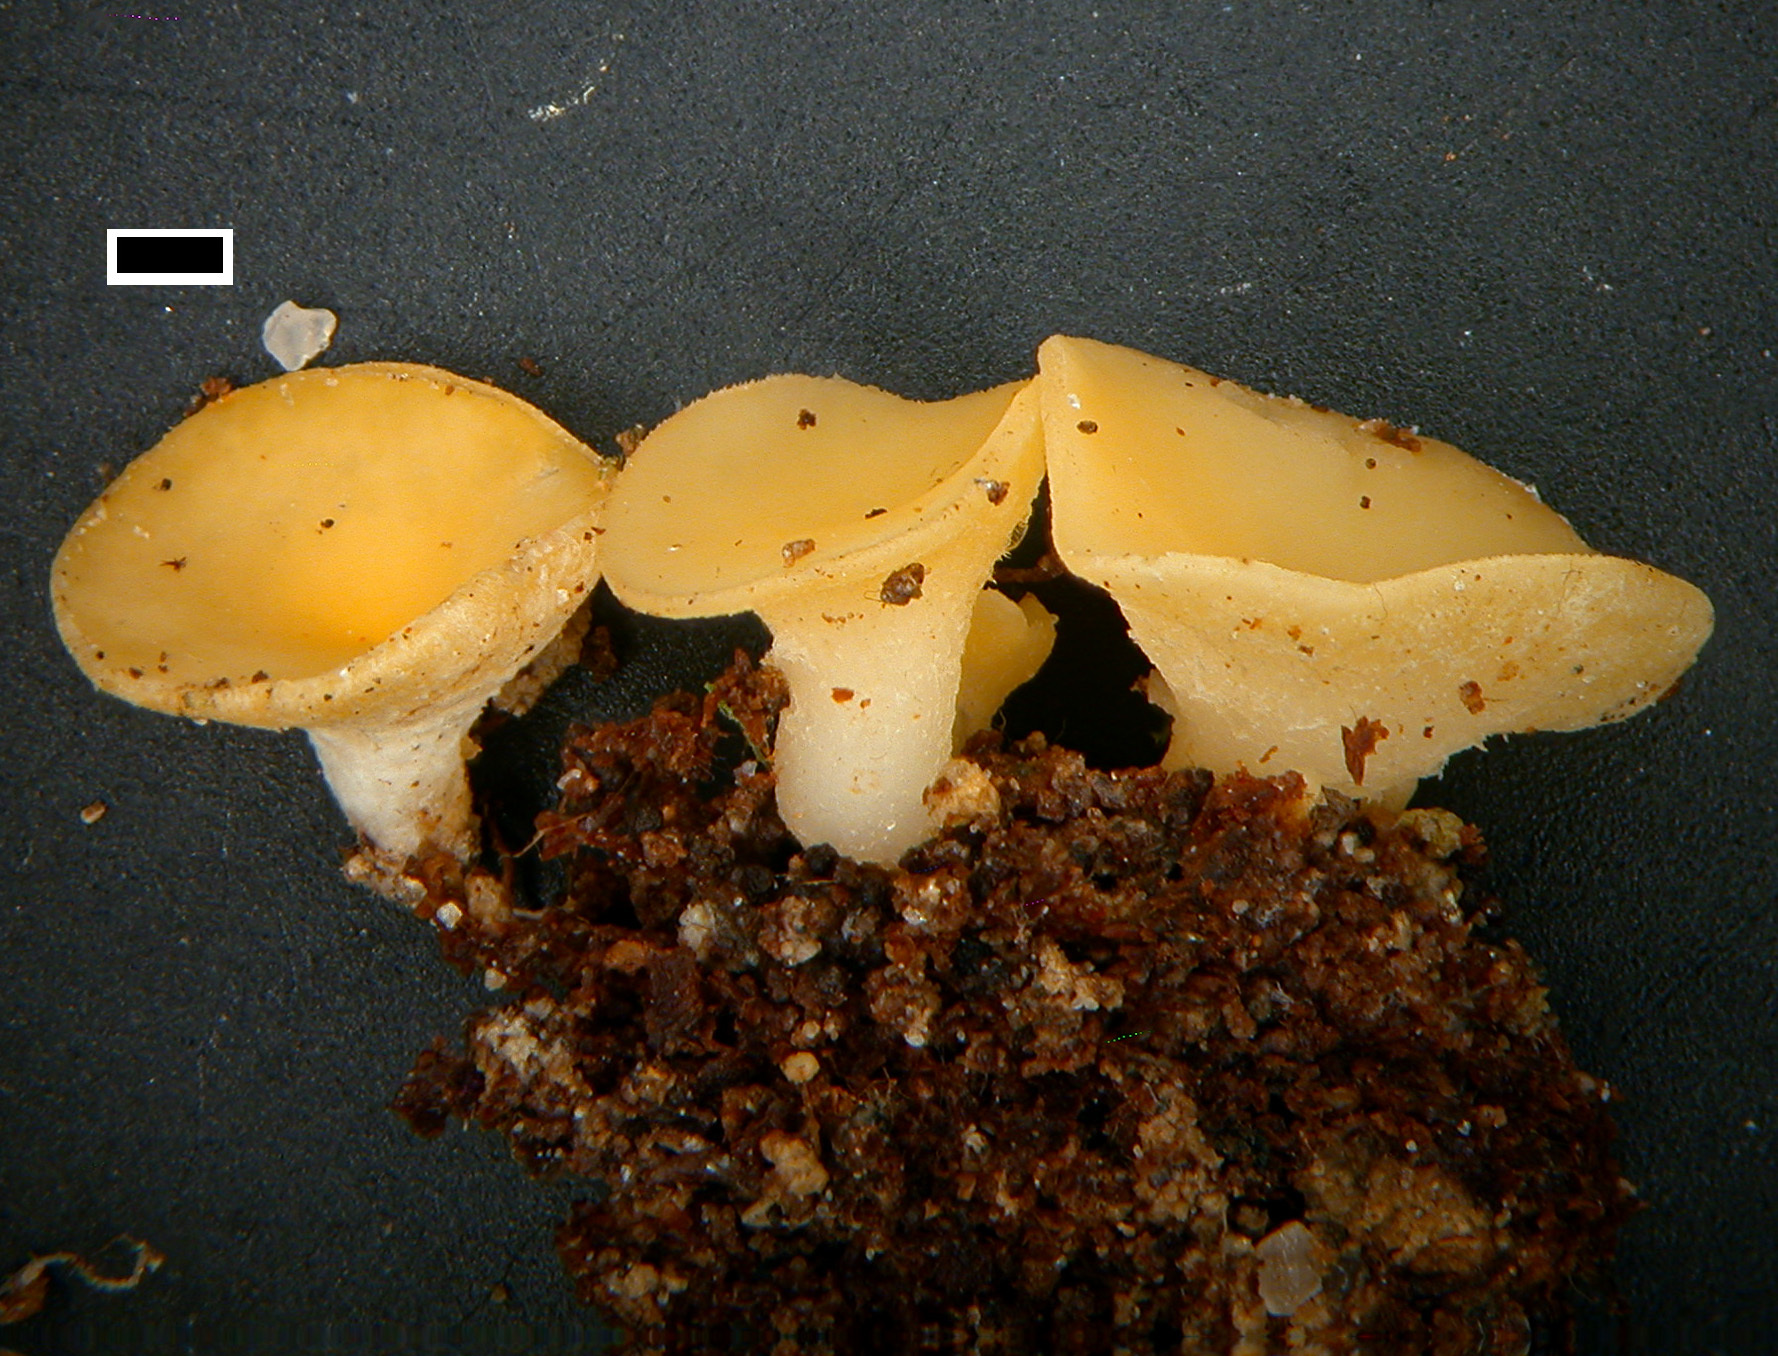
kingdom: Fungi
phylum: Ascomycota
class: Leotiomycetes
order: Helotiales
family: Helotiaceae
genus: Phaeohelotium
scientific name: Phaeohelotium confusum
